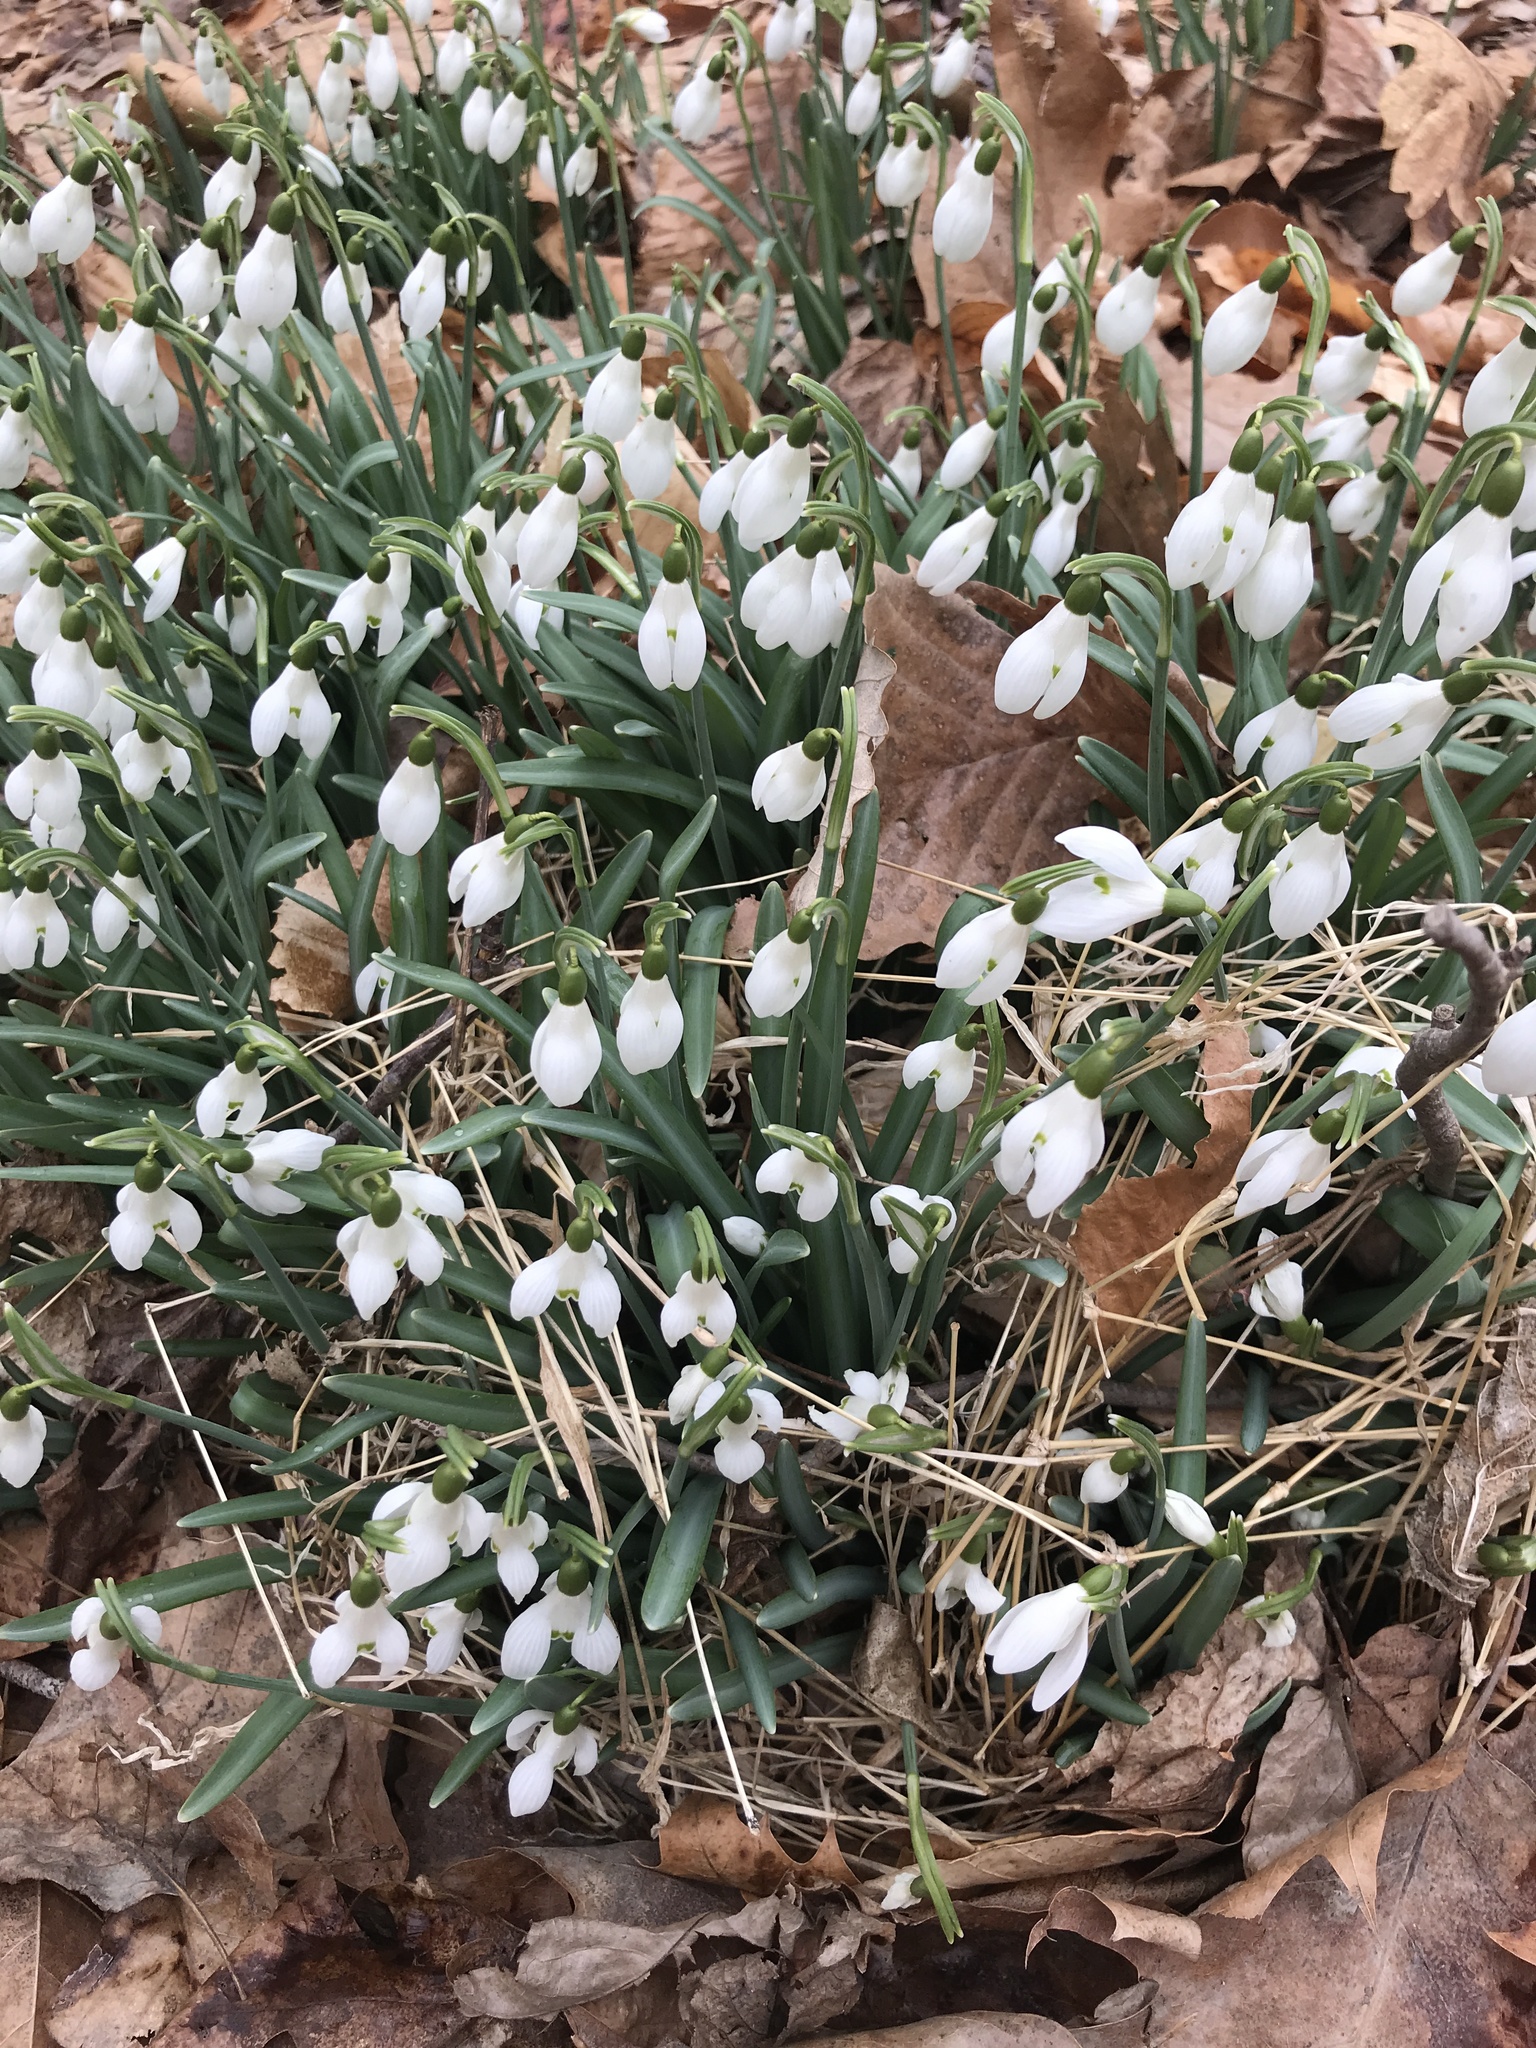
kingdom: Plantae
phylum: Tracheophyta
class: Liliopsida
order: Asparagales
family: Amaryllidaceae
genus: Galanthus
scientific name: Galanthus nivalis
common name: Snowdrop
